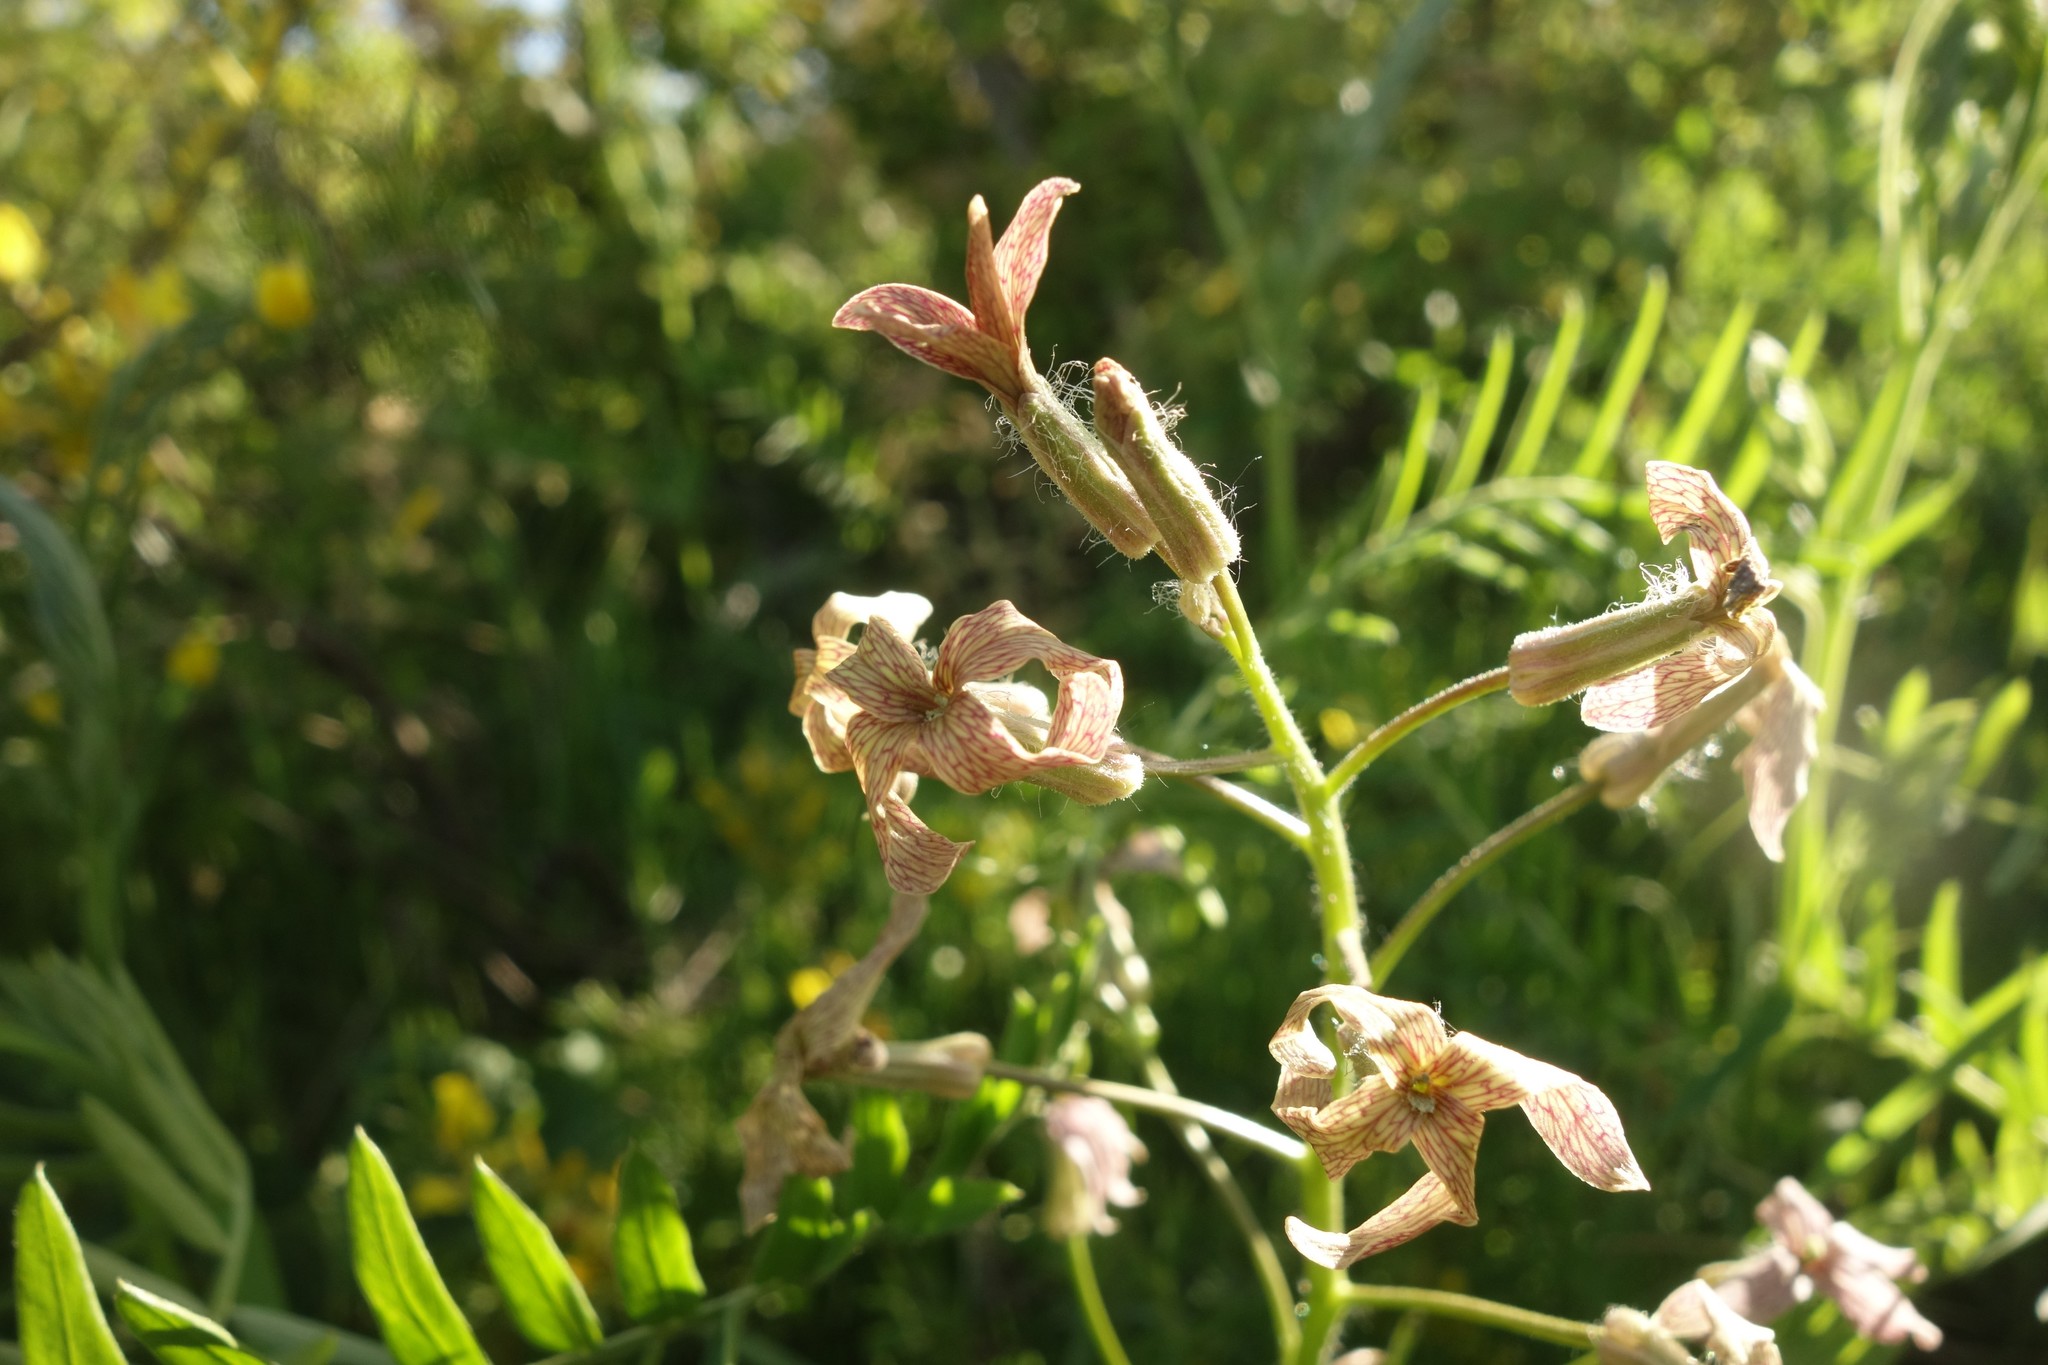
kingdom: Plantae
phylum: Tracheophyta
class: Magnoliopsida
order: Brassicales
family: Brassicaceae
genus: Hesperis
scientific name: Hesperis tristis
